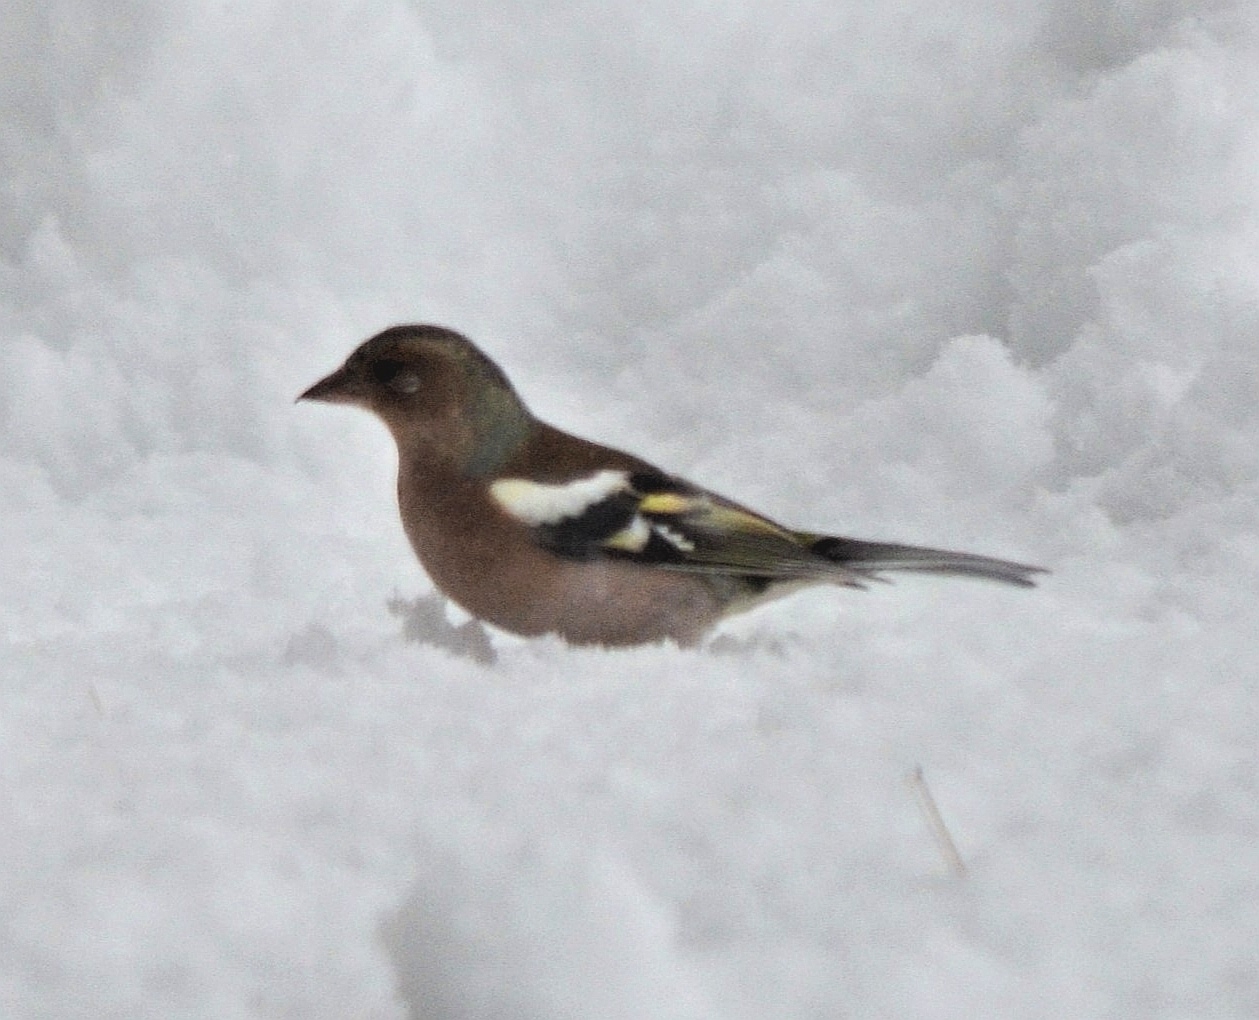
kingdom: Animalia
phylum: Chordata
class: Aves
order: Passeriformes
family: Fringillidae
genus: Fringilla
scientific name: Fringilla coelebs
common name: Common chaffinch
